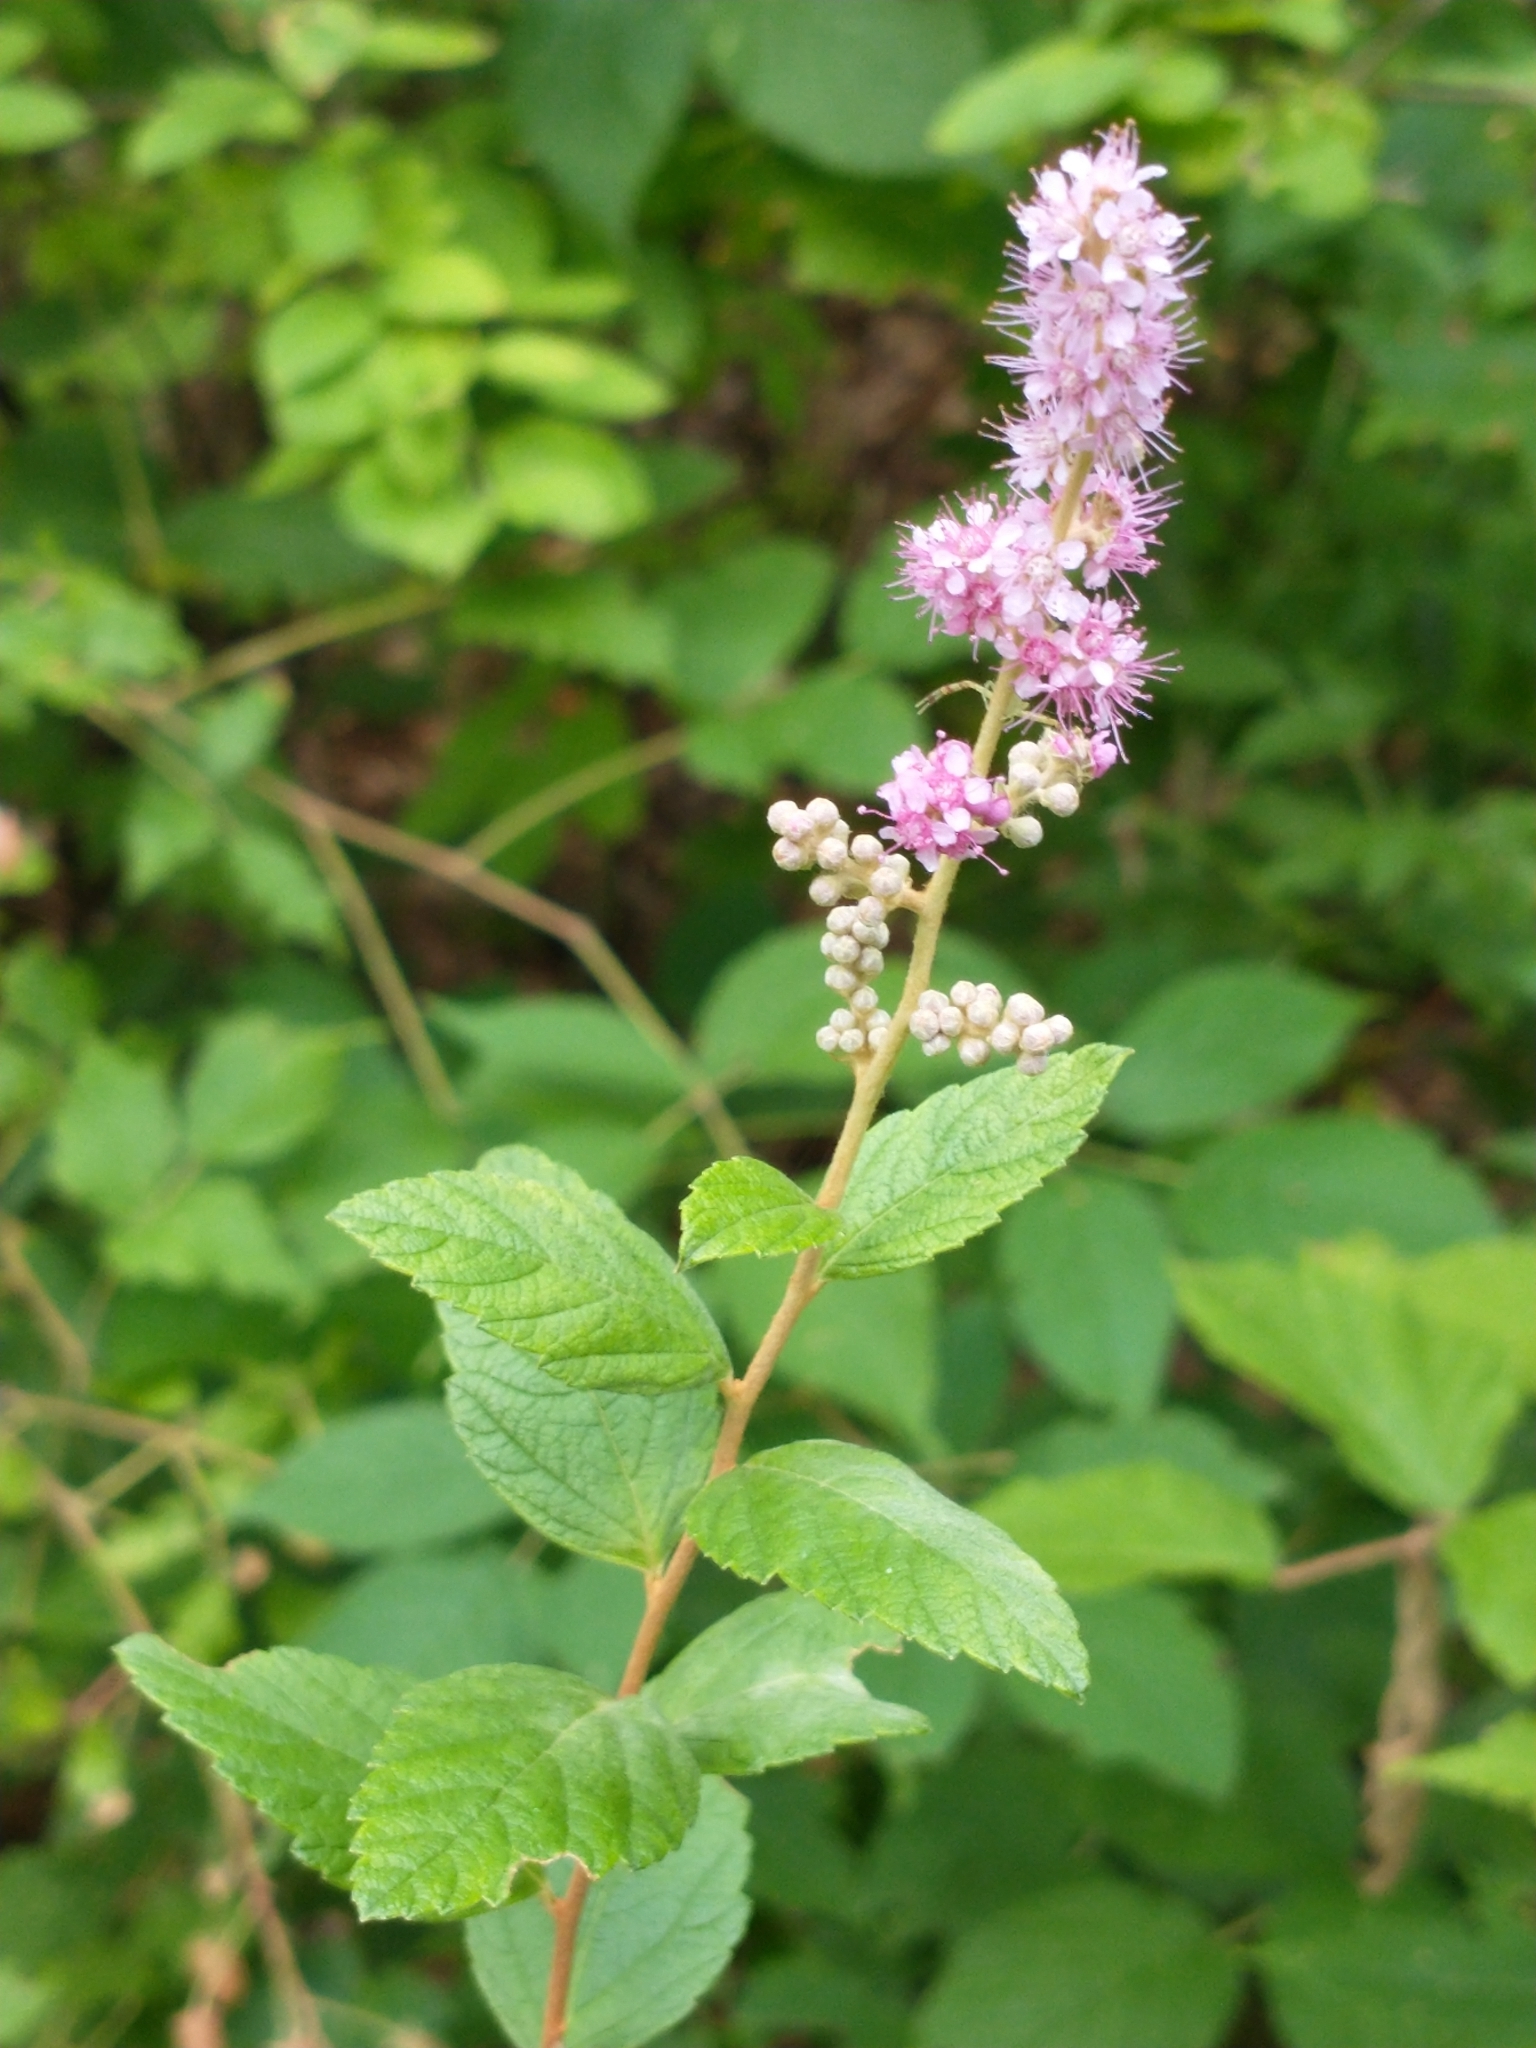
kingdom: Plantae
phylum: Tracheophyta
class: Magnoliopsida
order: Rosales
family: Rosaceae
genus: Spiraea
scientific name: Spiraea tomentosa
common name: Hardhack
